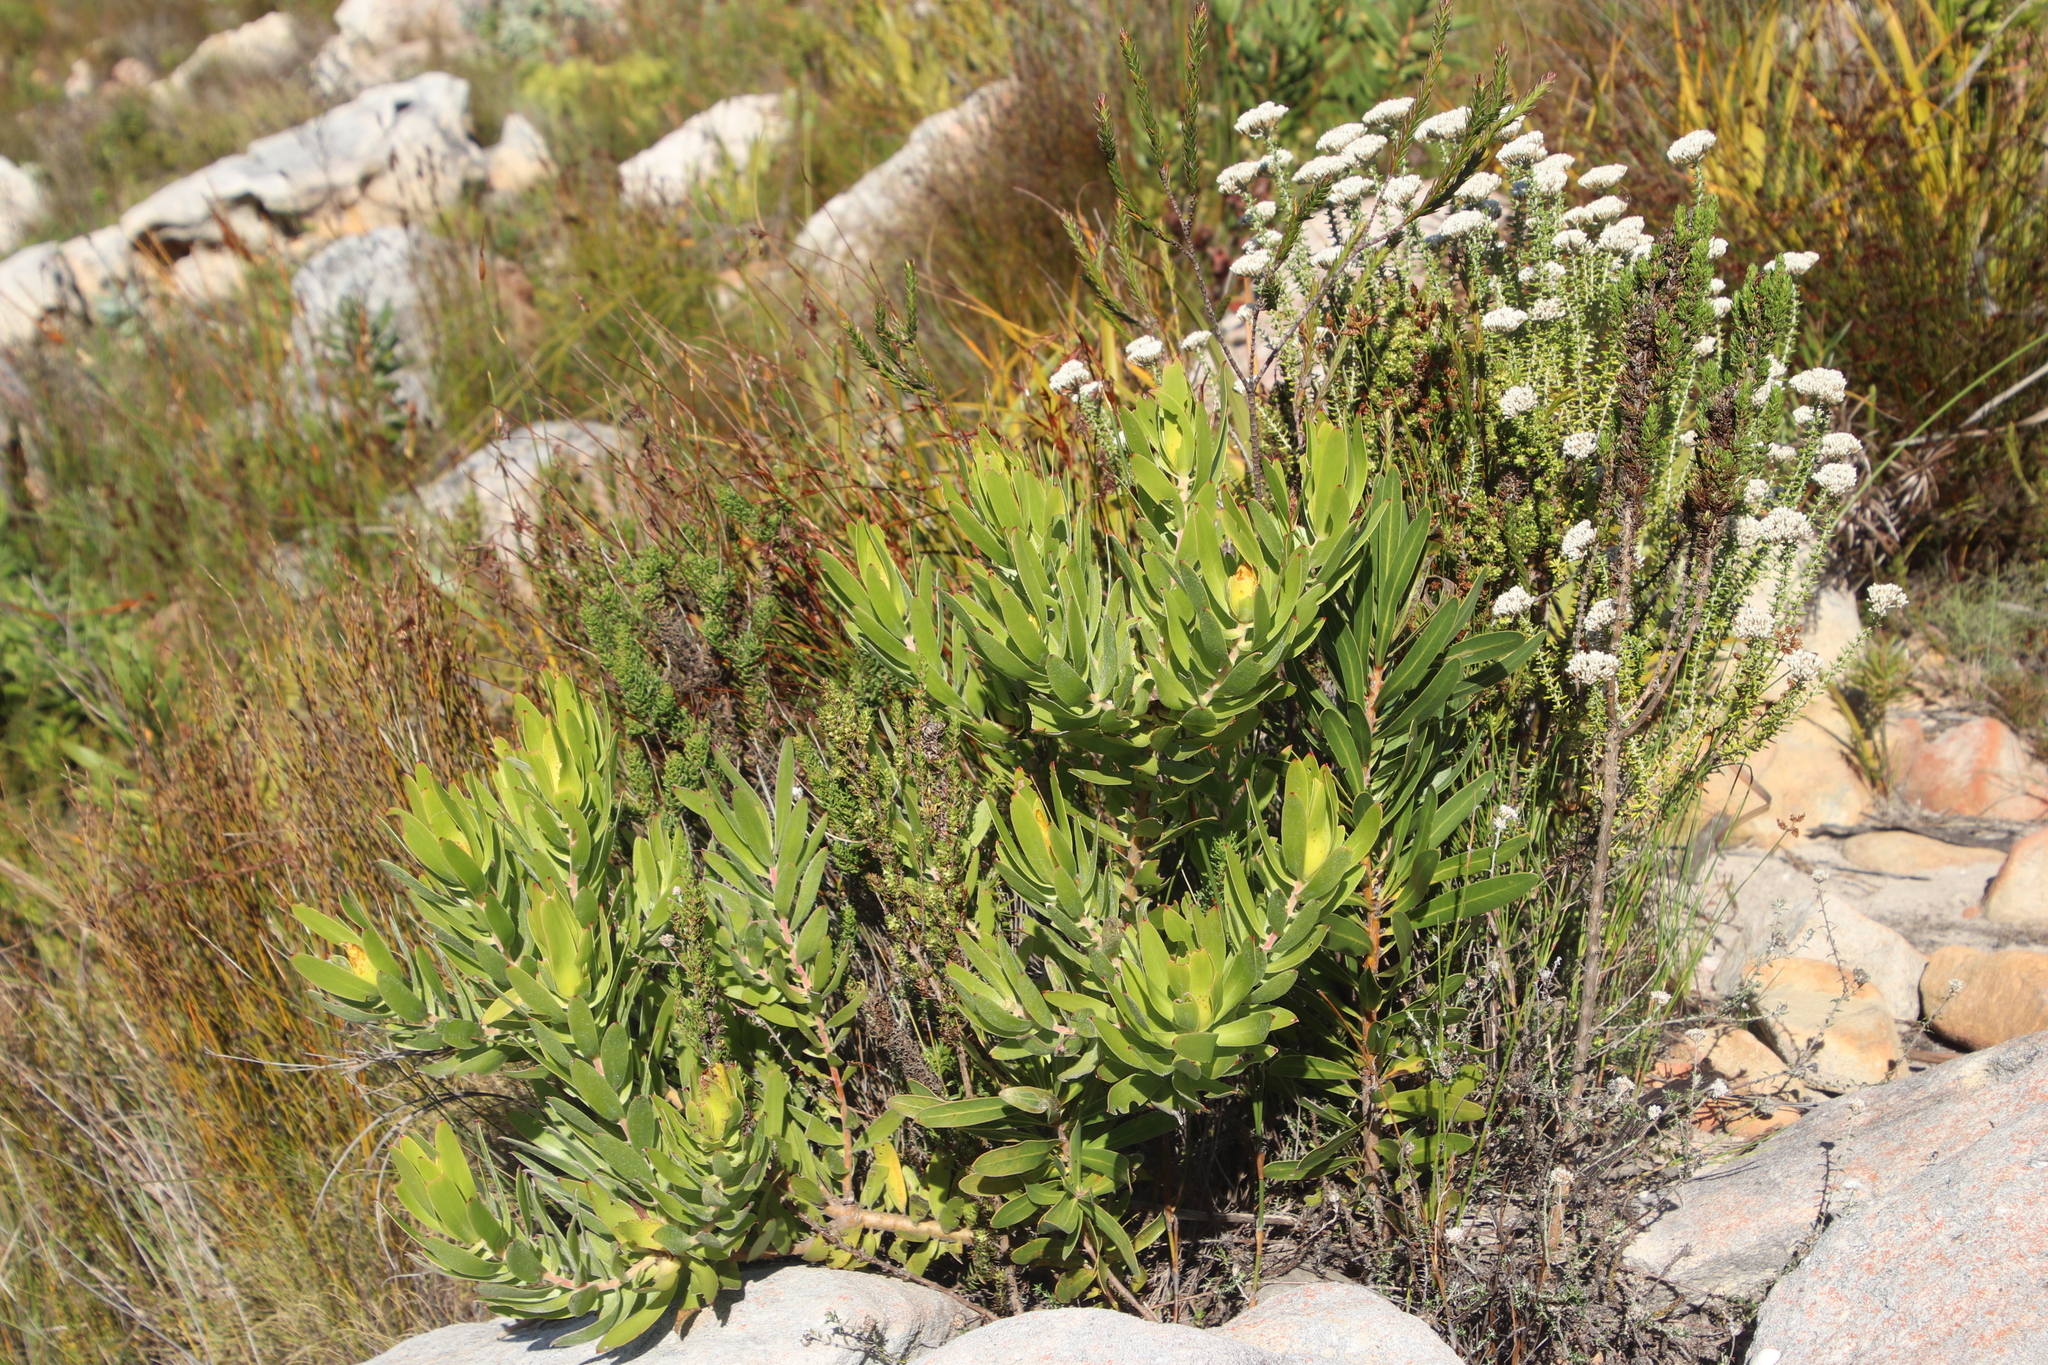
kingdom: Plantae
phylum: Tracheophyta
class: Magnoliopsida
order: Proteales
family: Proteaceae
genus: Leucadendron
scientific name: Leucadendron laureolum
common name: Golden sunshinebush
